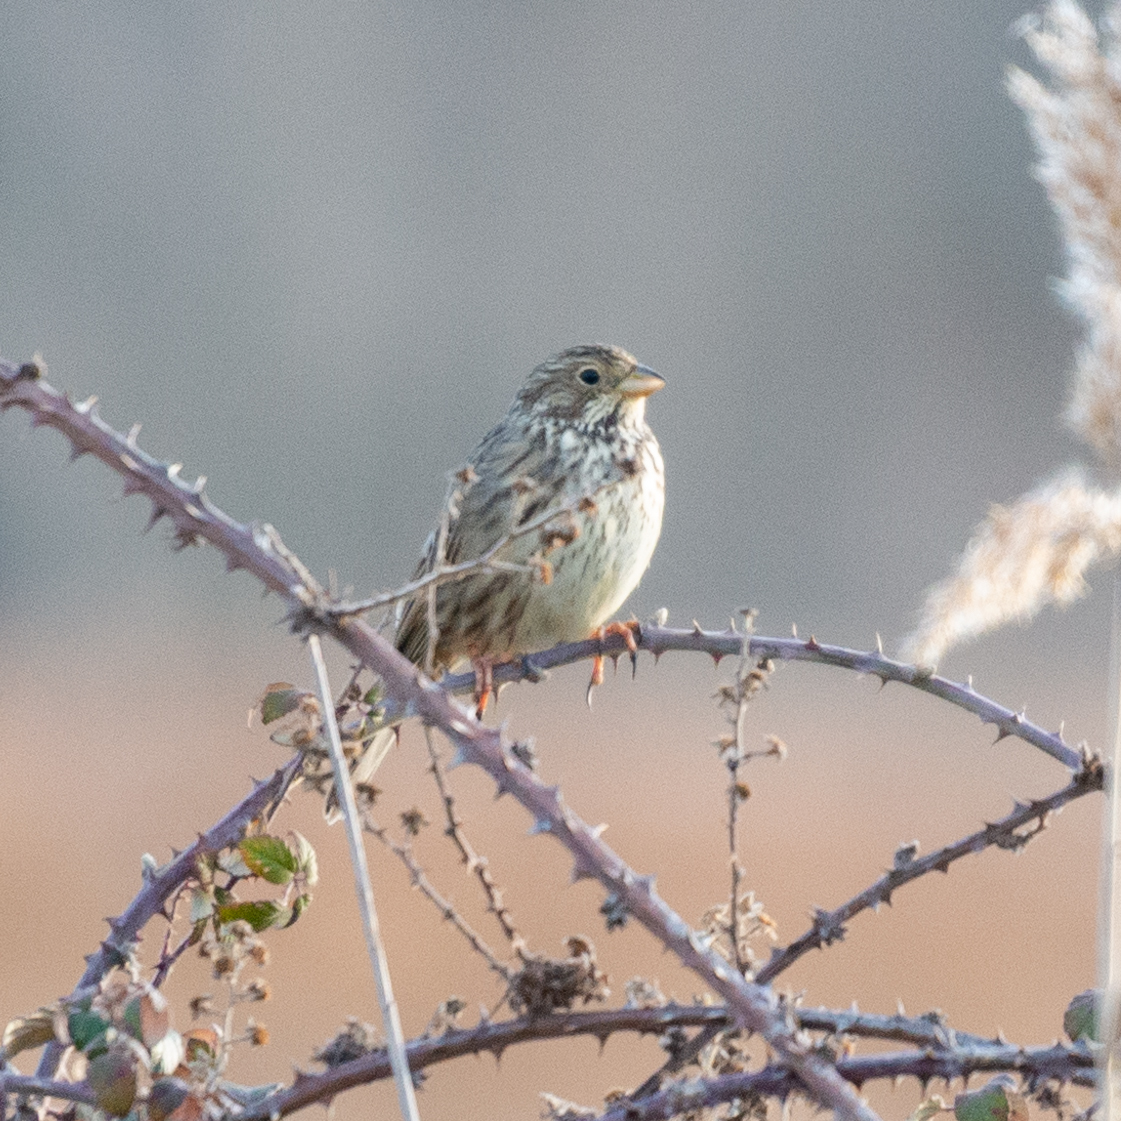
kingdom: Animalia
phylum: Chordata
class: Aves
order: Passeriformes
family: Emberizidae
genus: Emberiza
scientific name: Emberiza calandra
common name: Corn bunting
